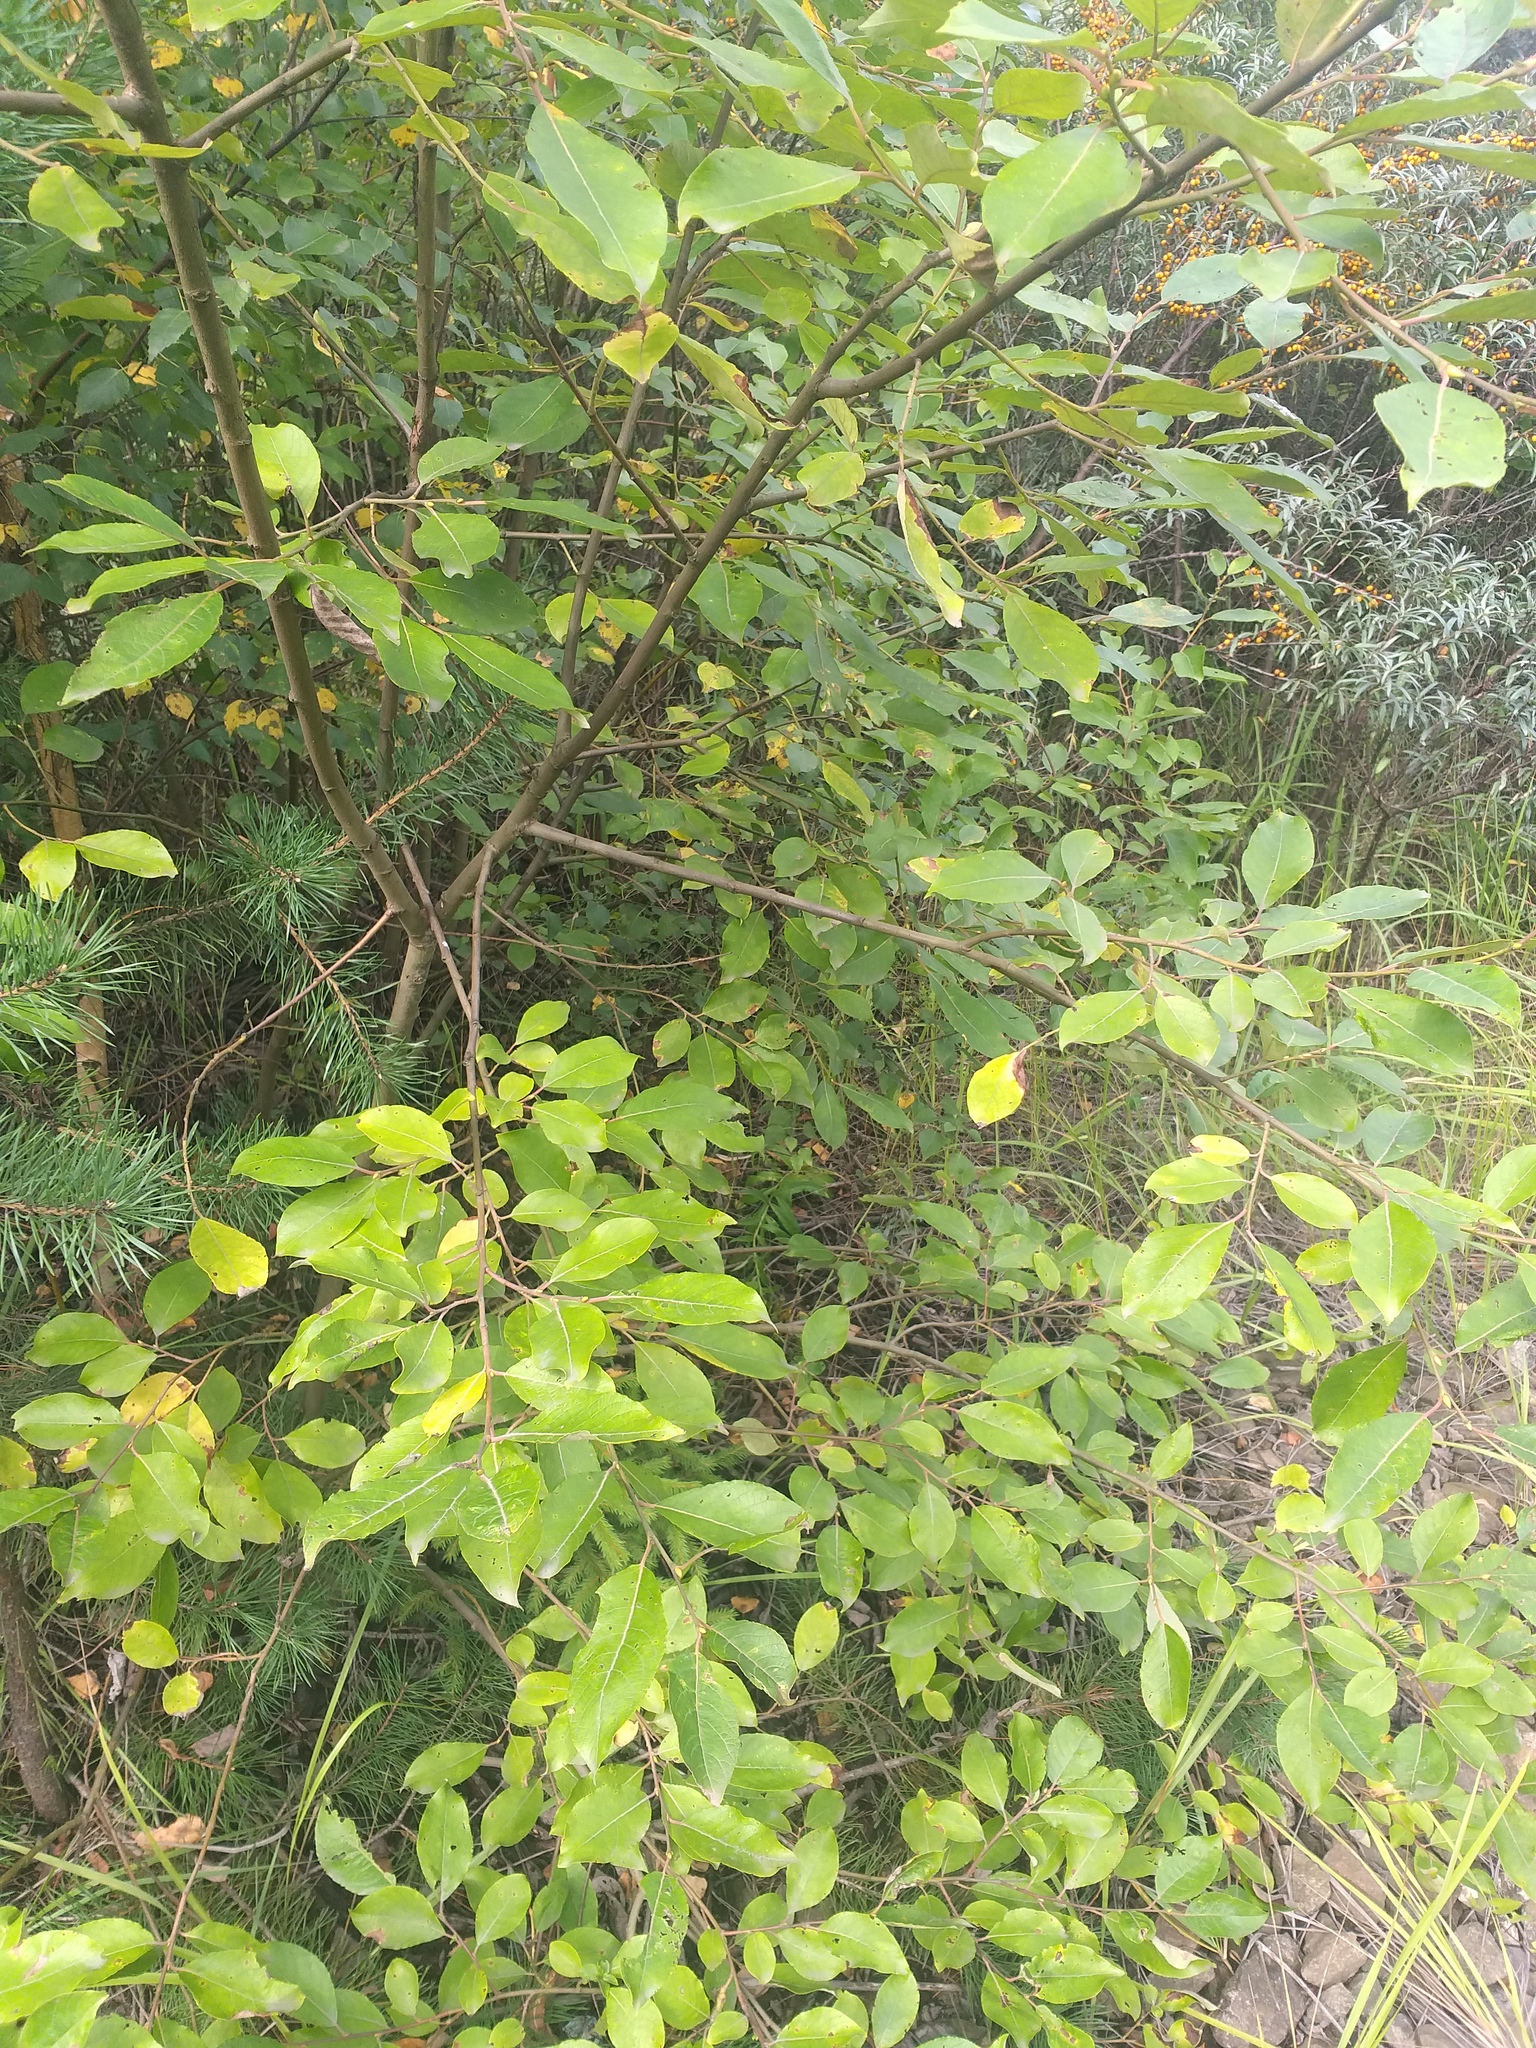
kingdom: Plantae
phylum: Tracheophyta
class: Magnoliopsida
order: Malpighiales
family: Salicaceae
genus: Salix
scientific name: Salix caprea
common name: Goat willow
